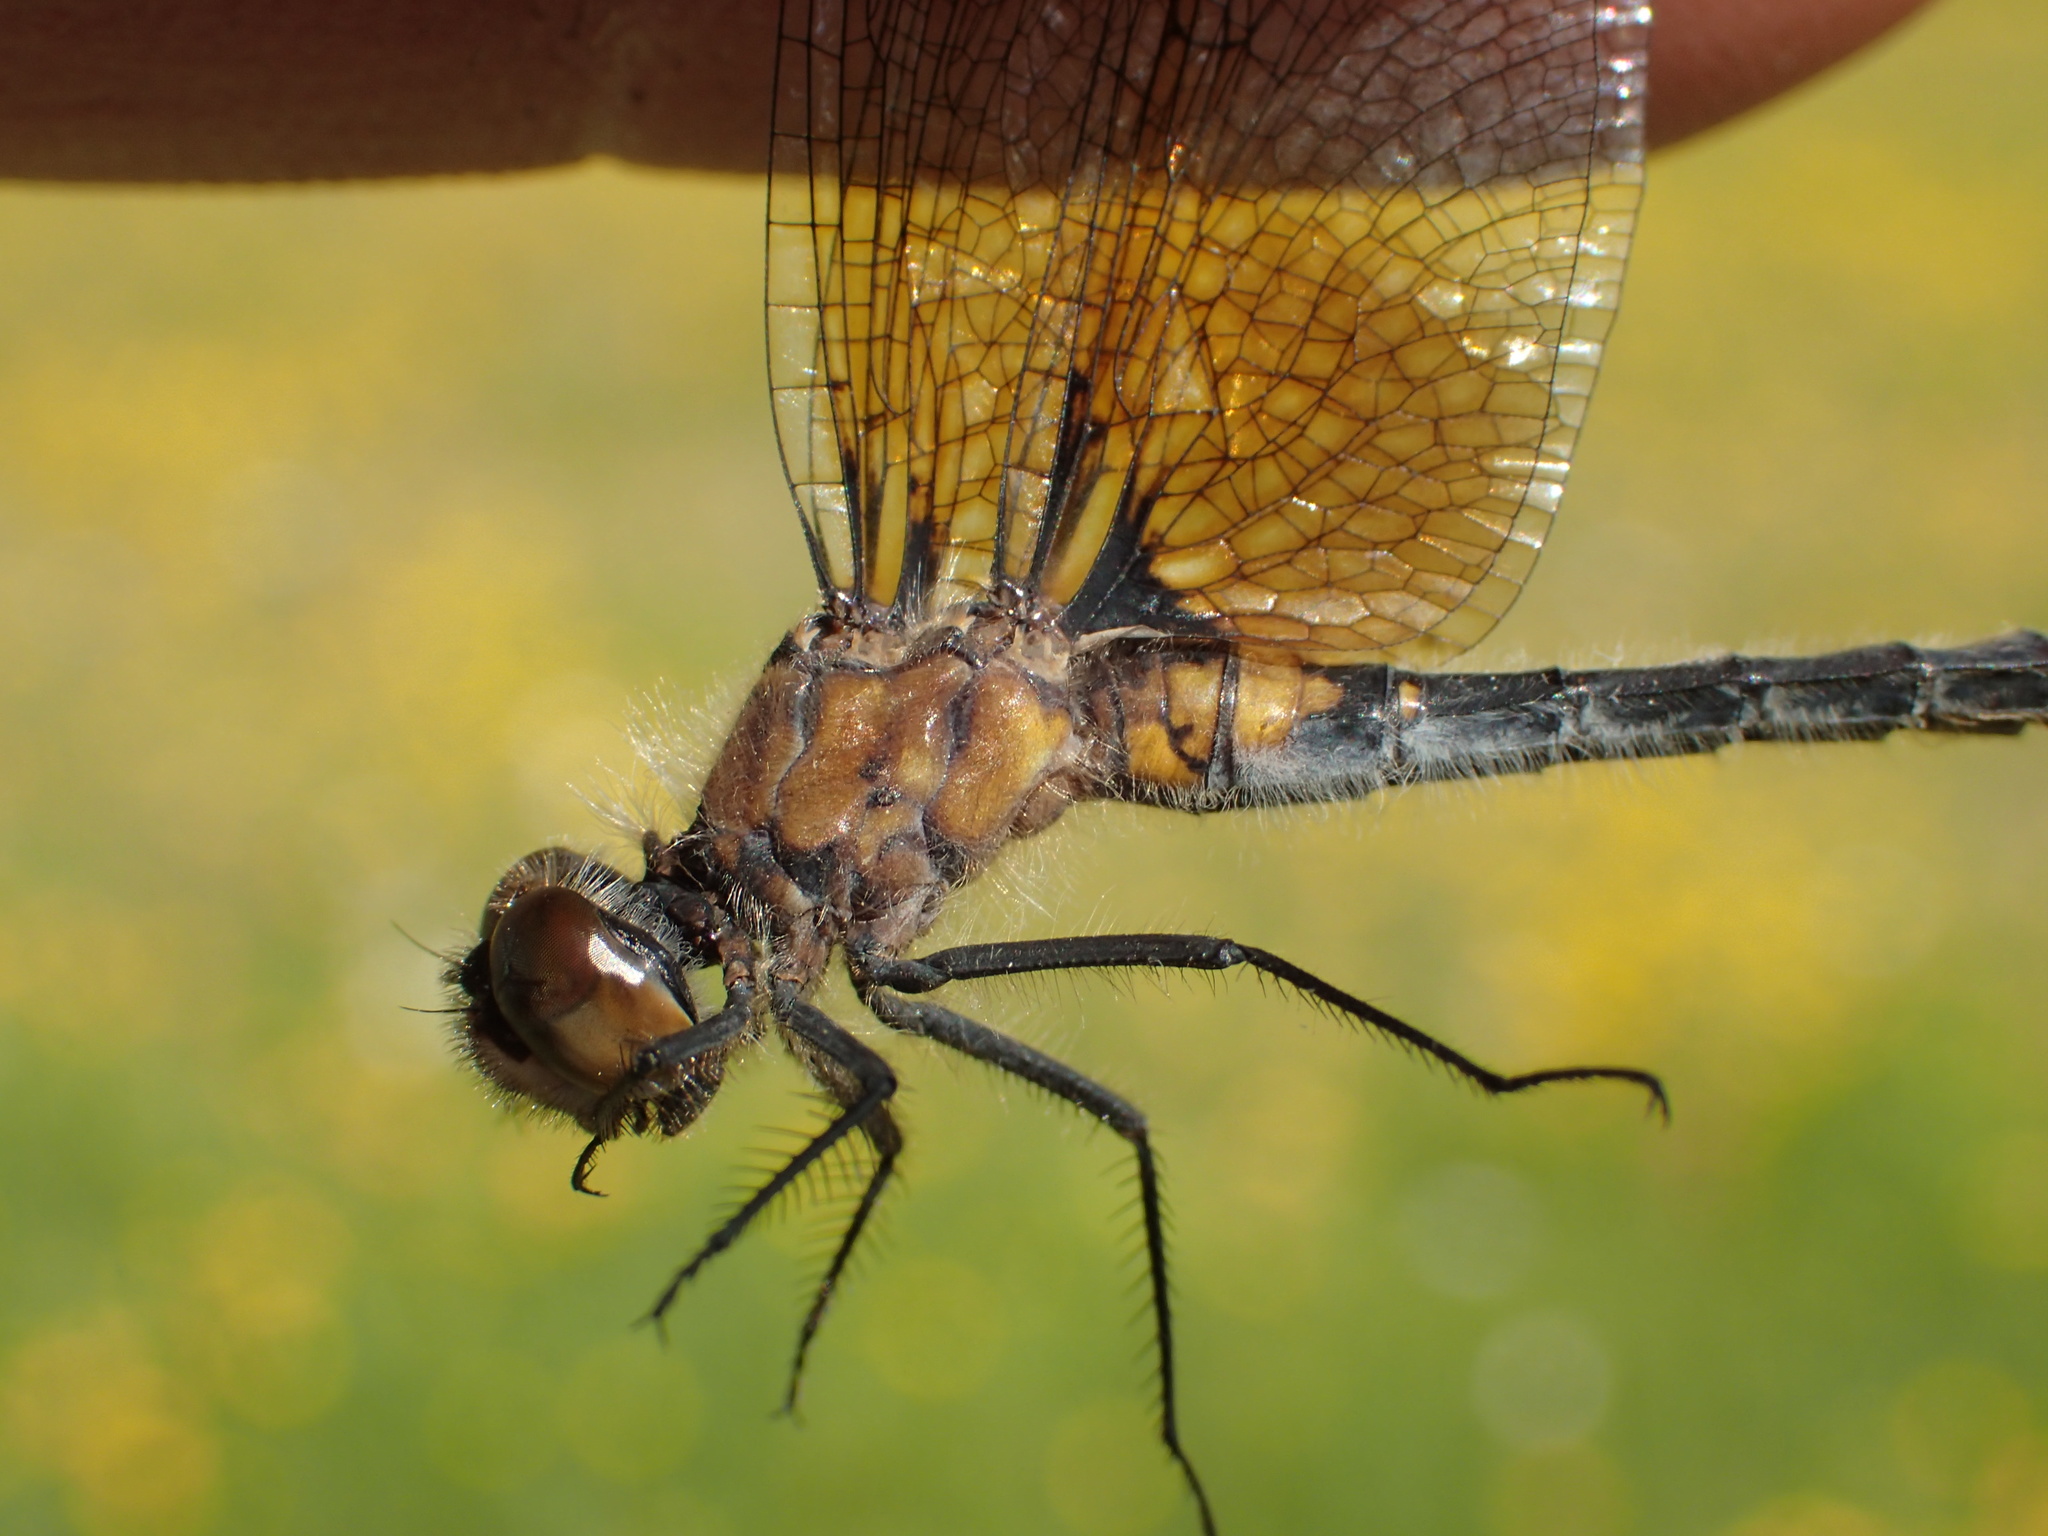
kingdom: Animalia
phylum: Arthropoda
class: Insecta
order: Odonata
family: Libellulidae
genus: Leucorrhinia
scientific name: Leucorrhinia frigida
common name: Frosted whiteface
